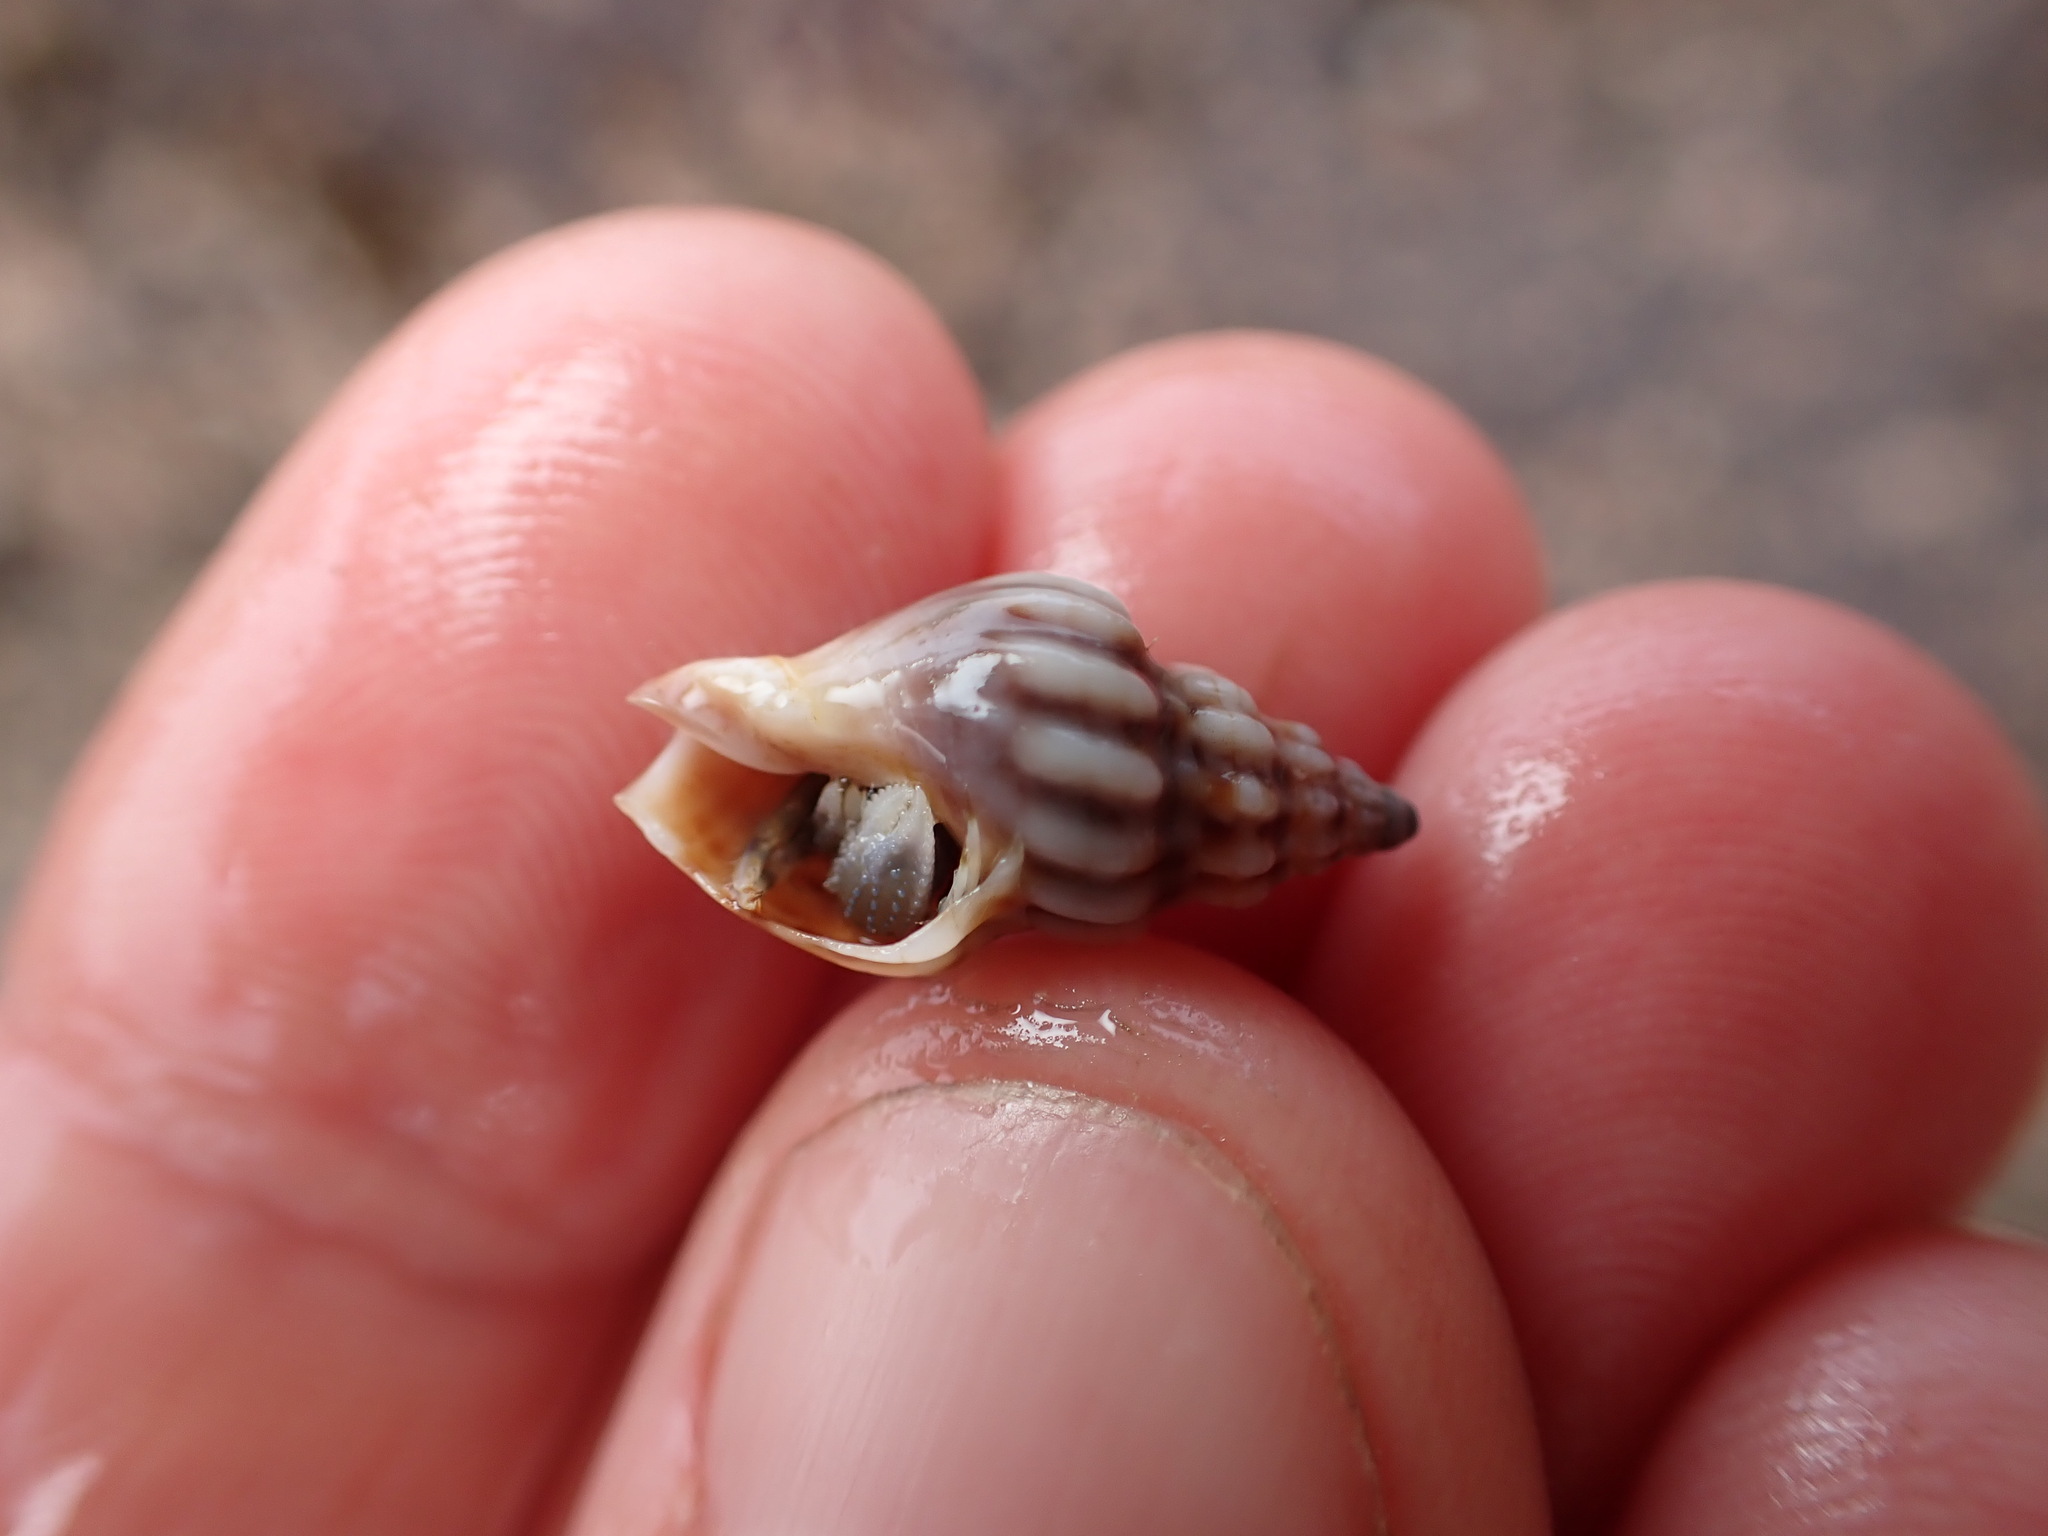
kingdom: Animalia
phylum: Mollusca
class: Gastropoda
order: Neogastropoda
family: Cominellidae
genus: Cominella
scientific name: Cominella quoyana
